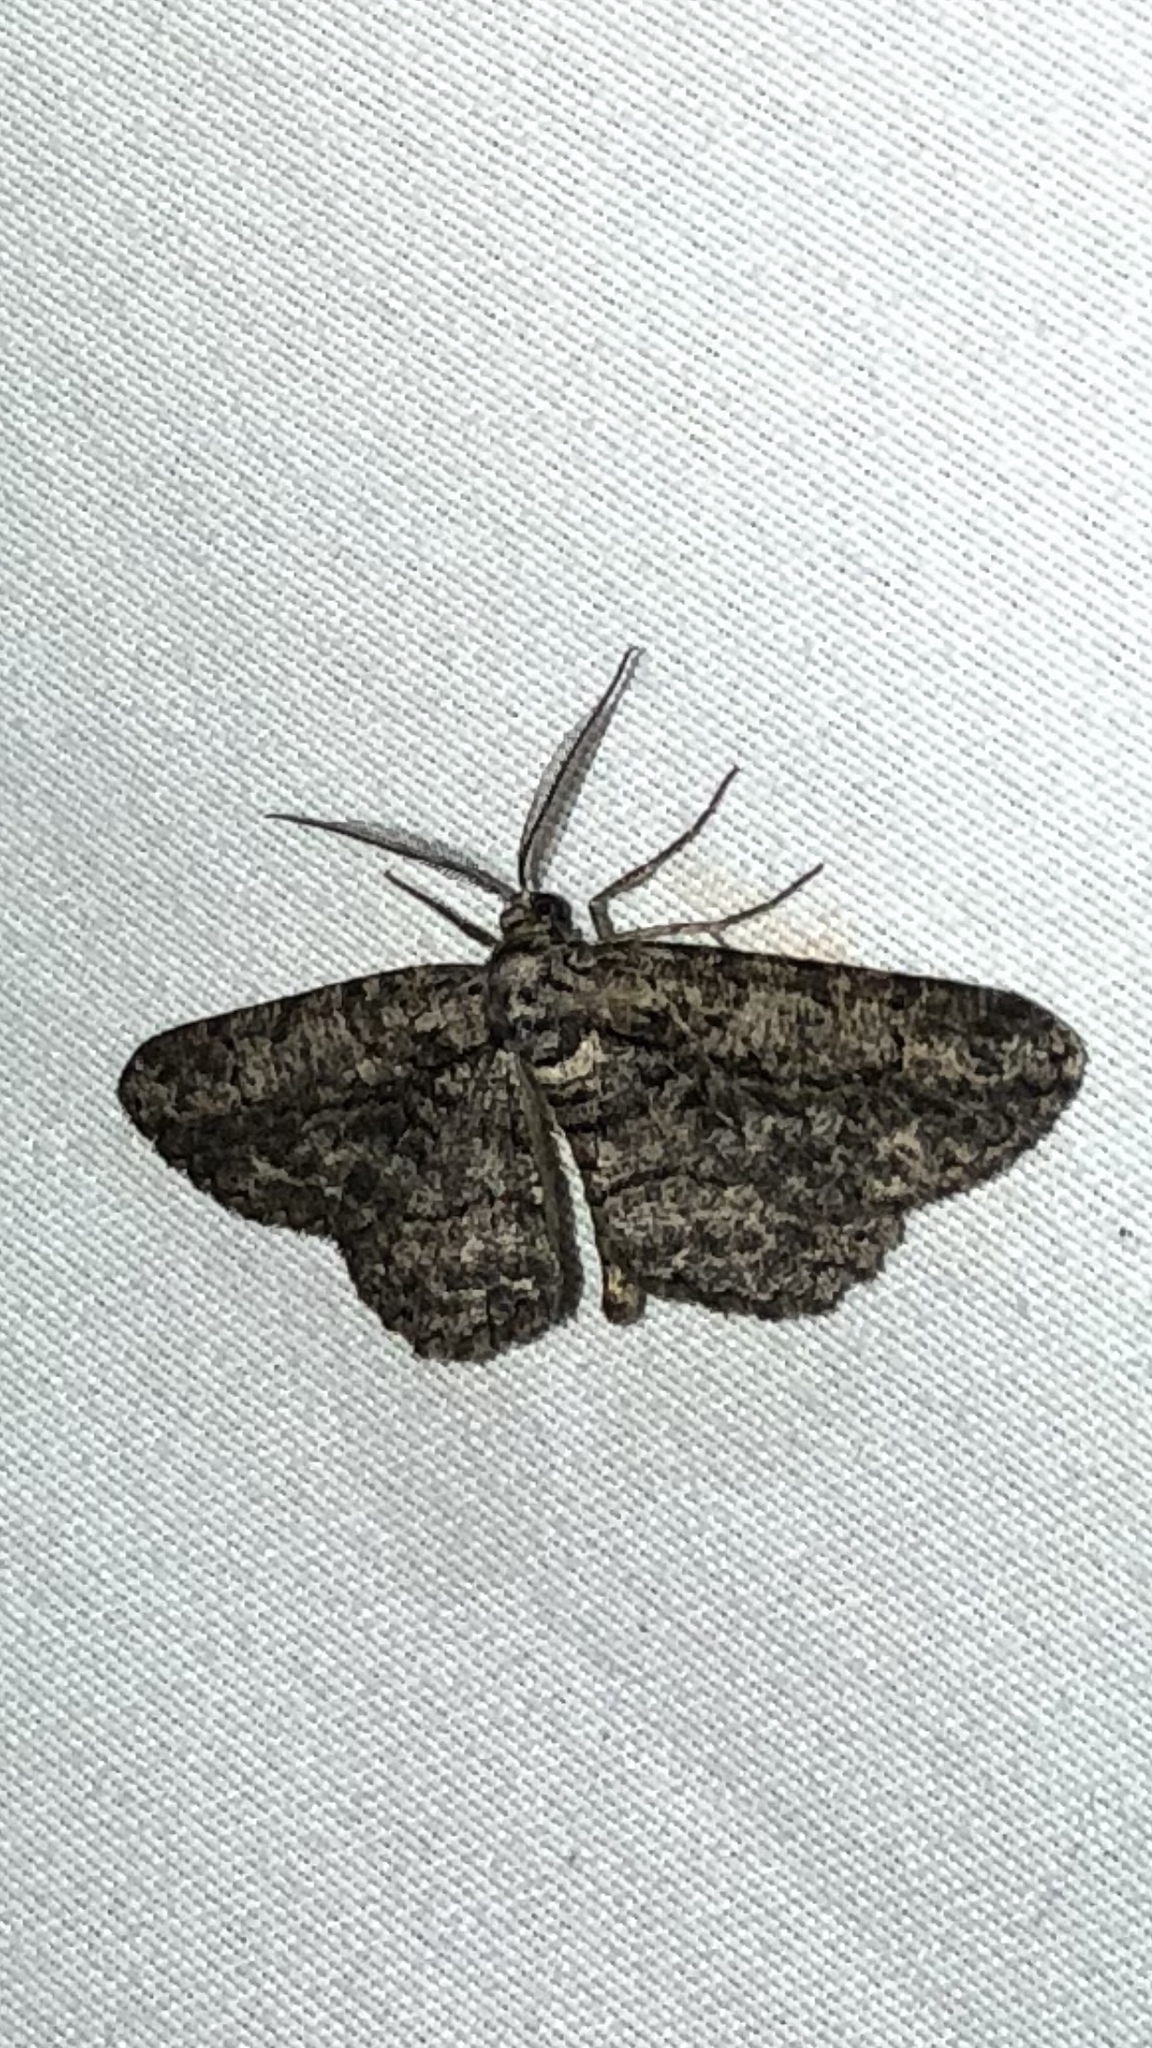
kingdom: Animalia
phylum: Arthropoda
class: Insecta
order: Lepidoptera
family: Geometridae
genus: Anavitrinella
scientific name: Anavitrinella pampinaria
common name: Common gray
